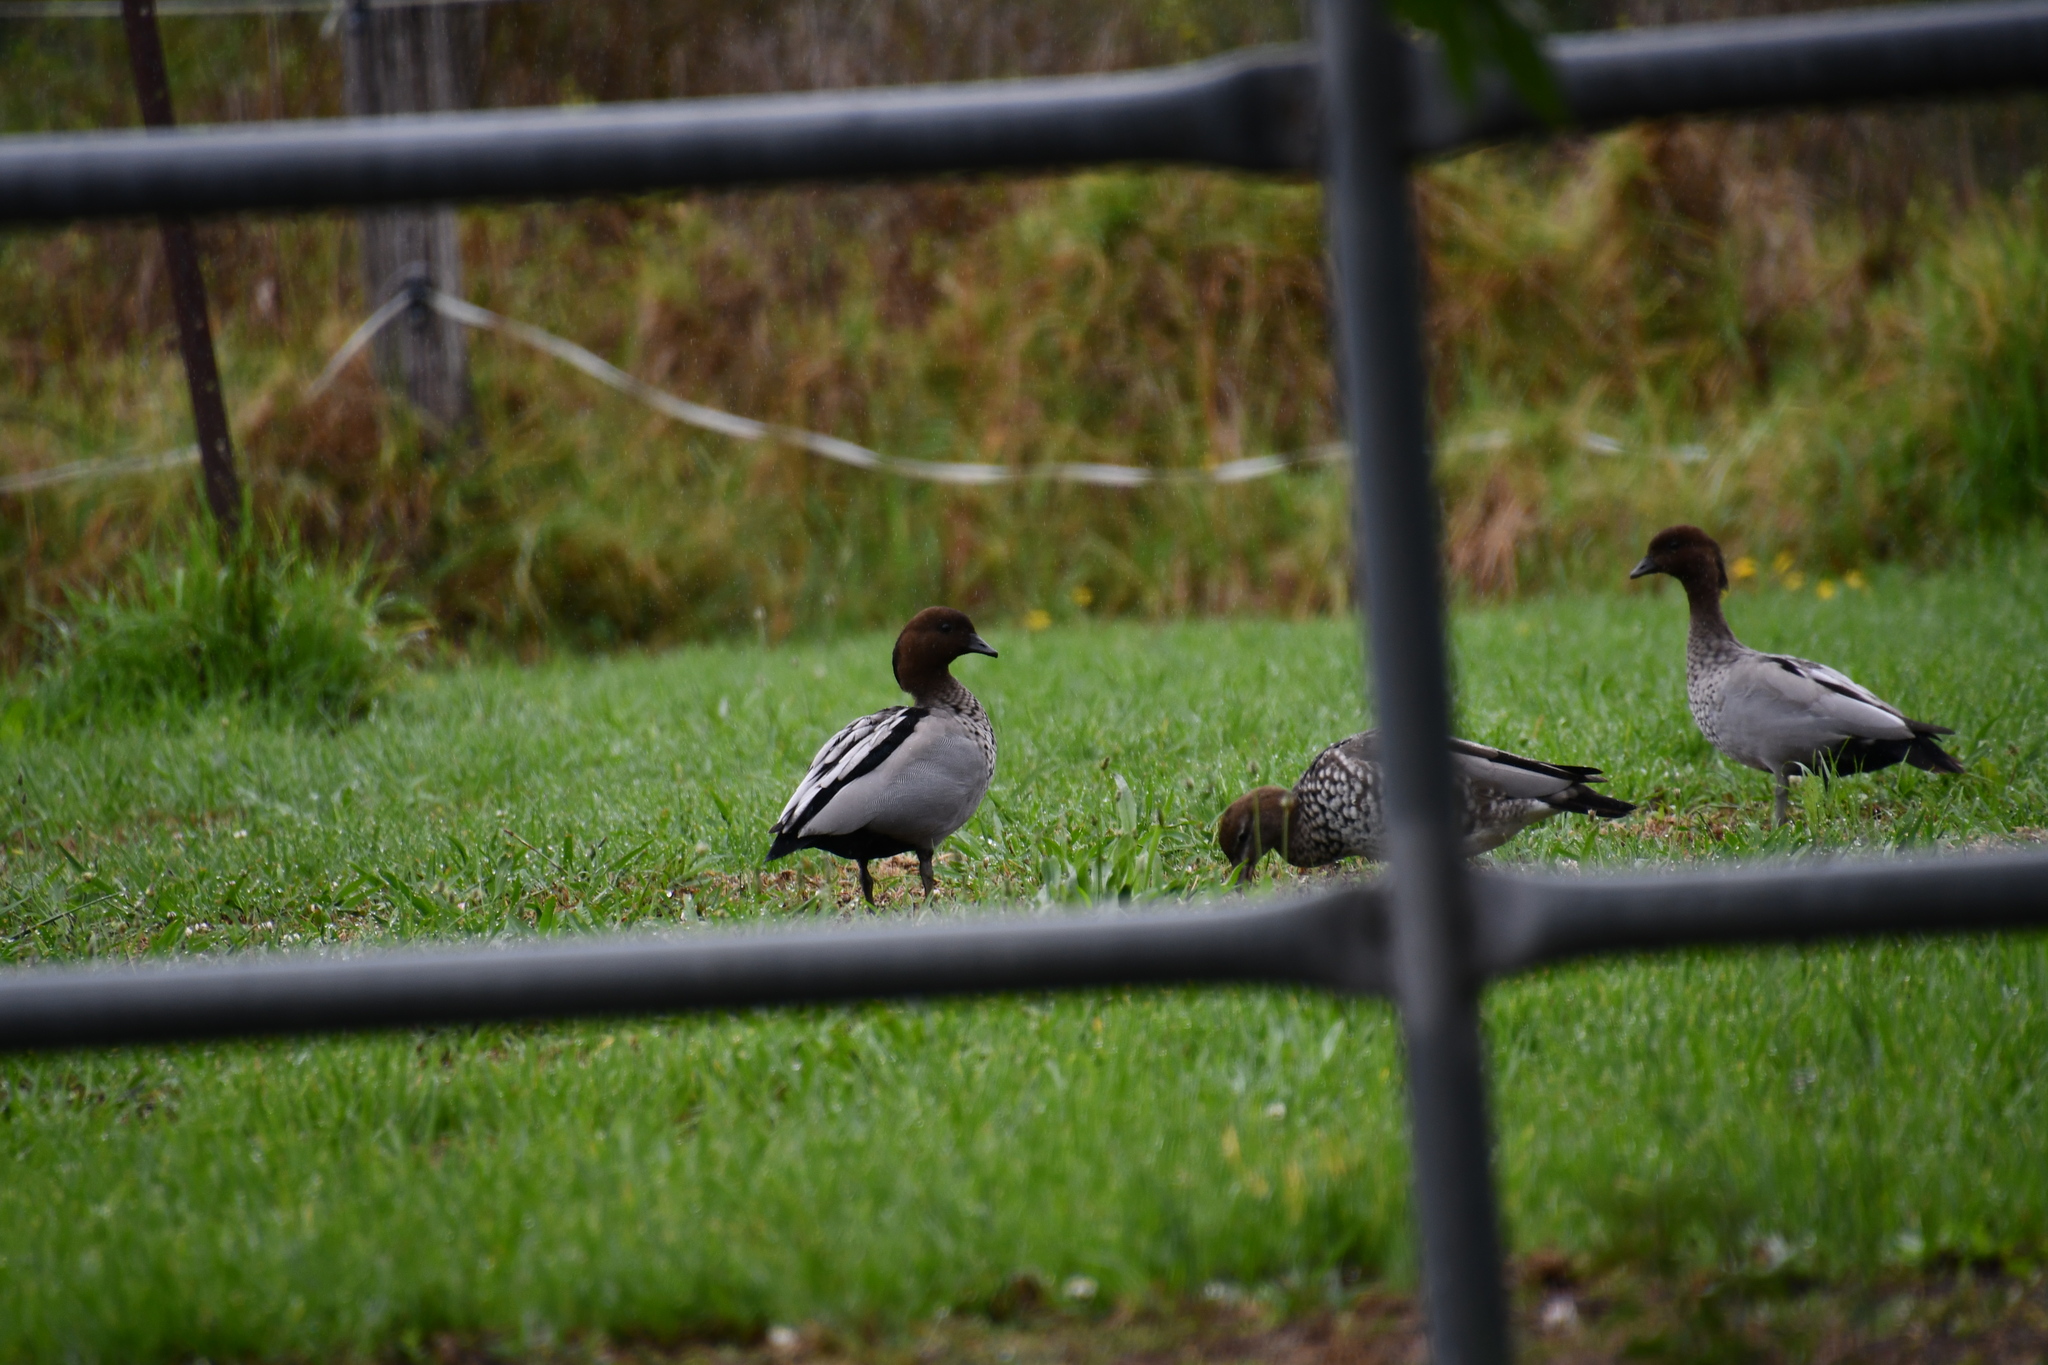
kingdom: Animalia
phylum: Chordata
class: Aves
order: Anseriformes
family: Anatidae
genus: Chenonetta
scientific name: Chenonetta jubata
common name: Maned duck
